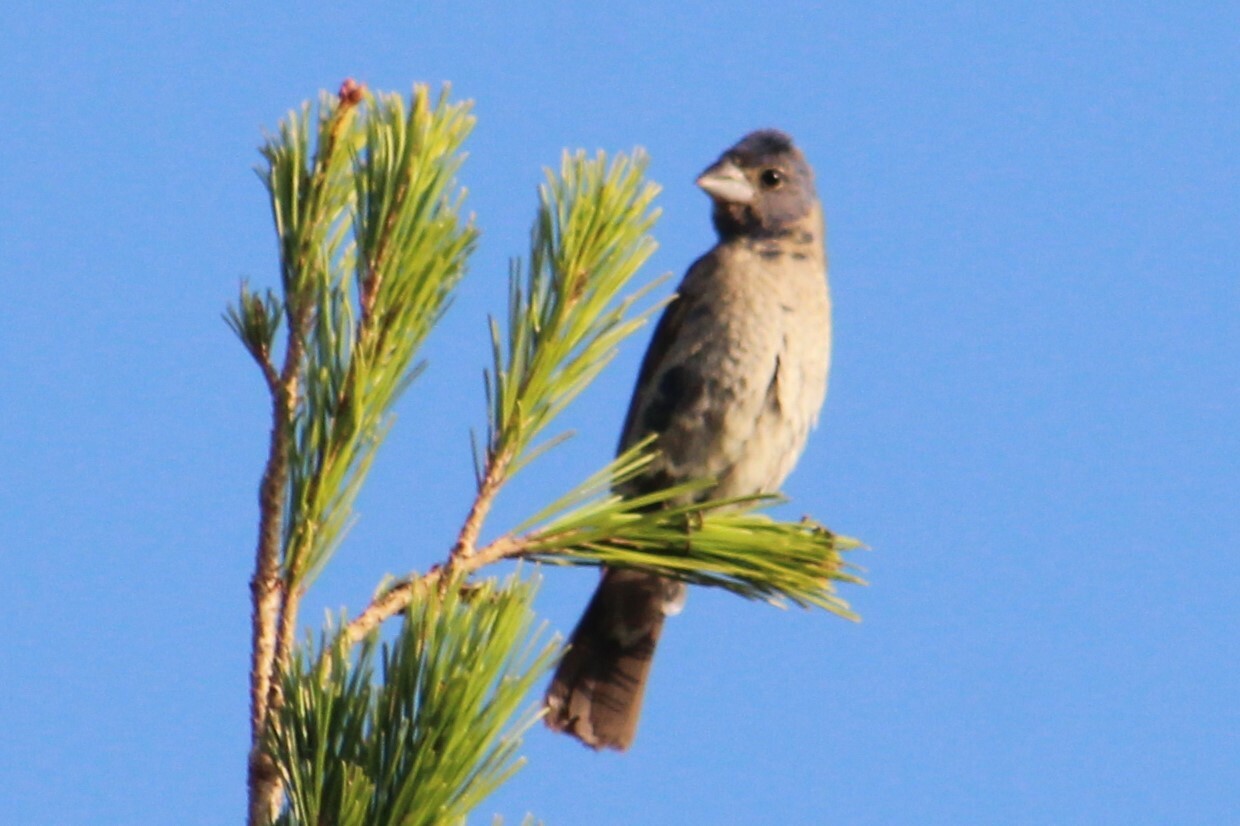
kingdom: Animalia
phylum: Chordata
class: Aves
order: Passeriformes
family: Cardinalidae
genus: Passerina
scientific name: Passerina caerulea
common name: Blue grosbeak
